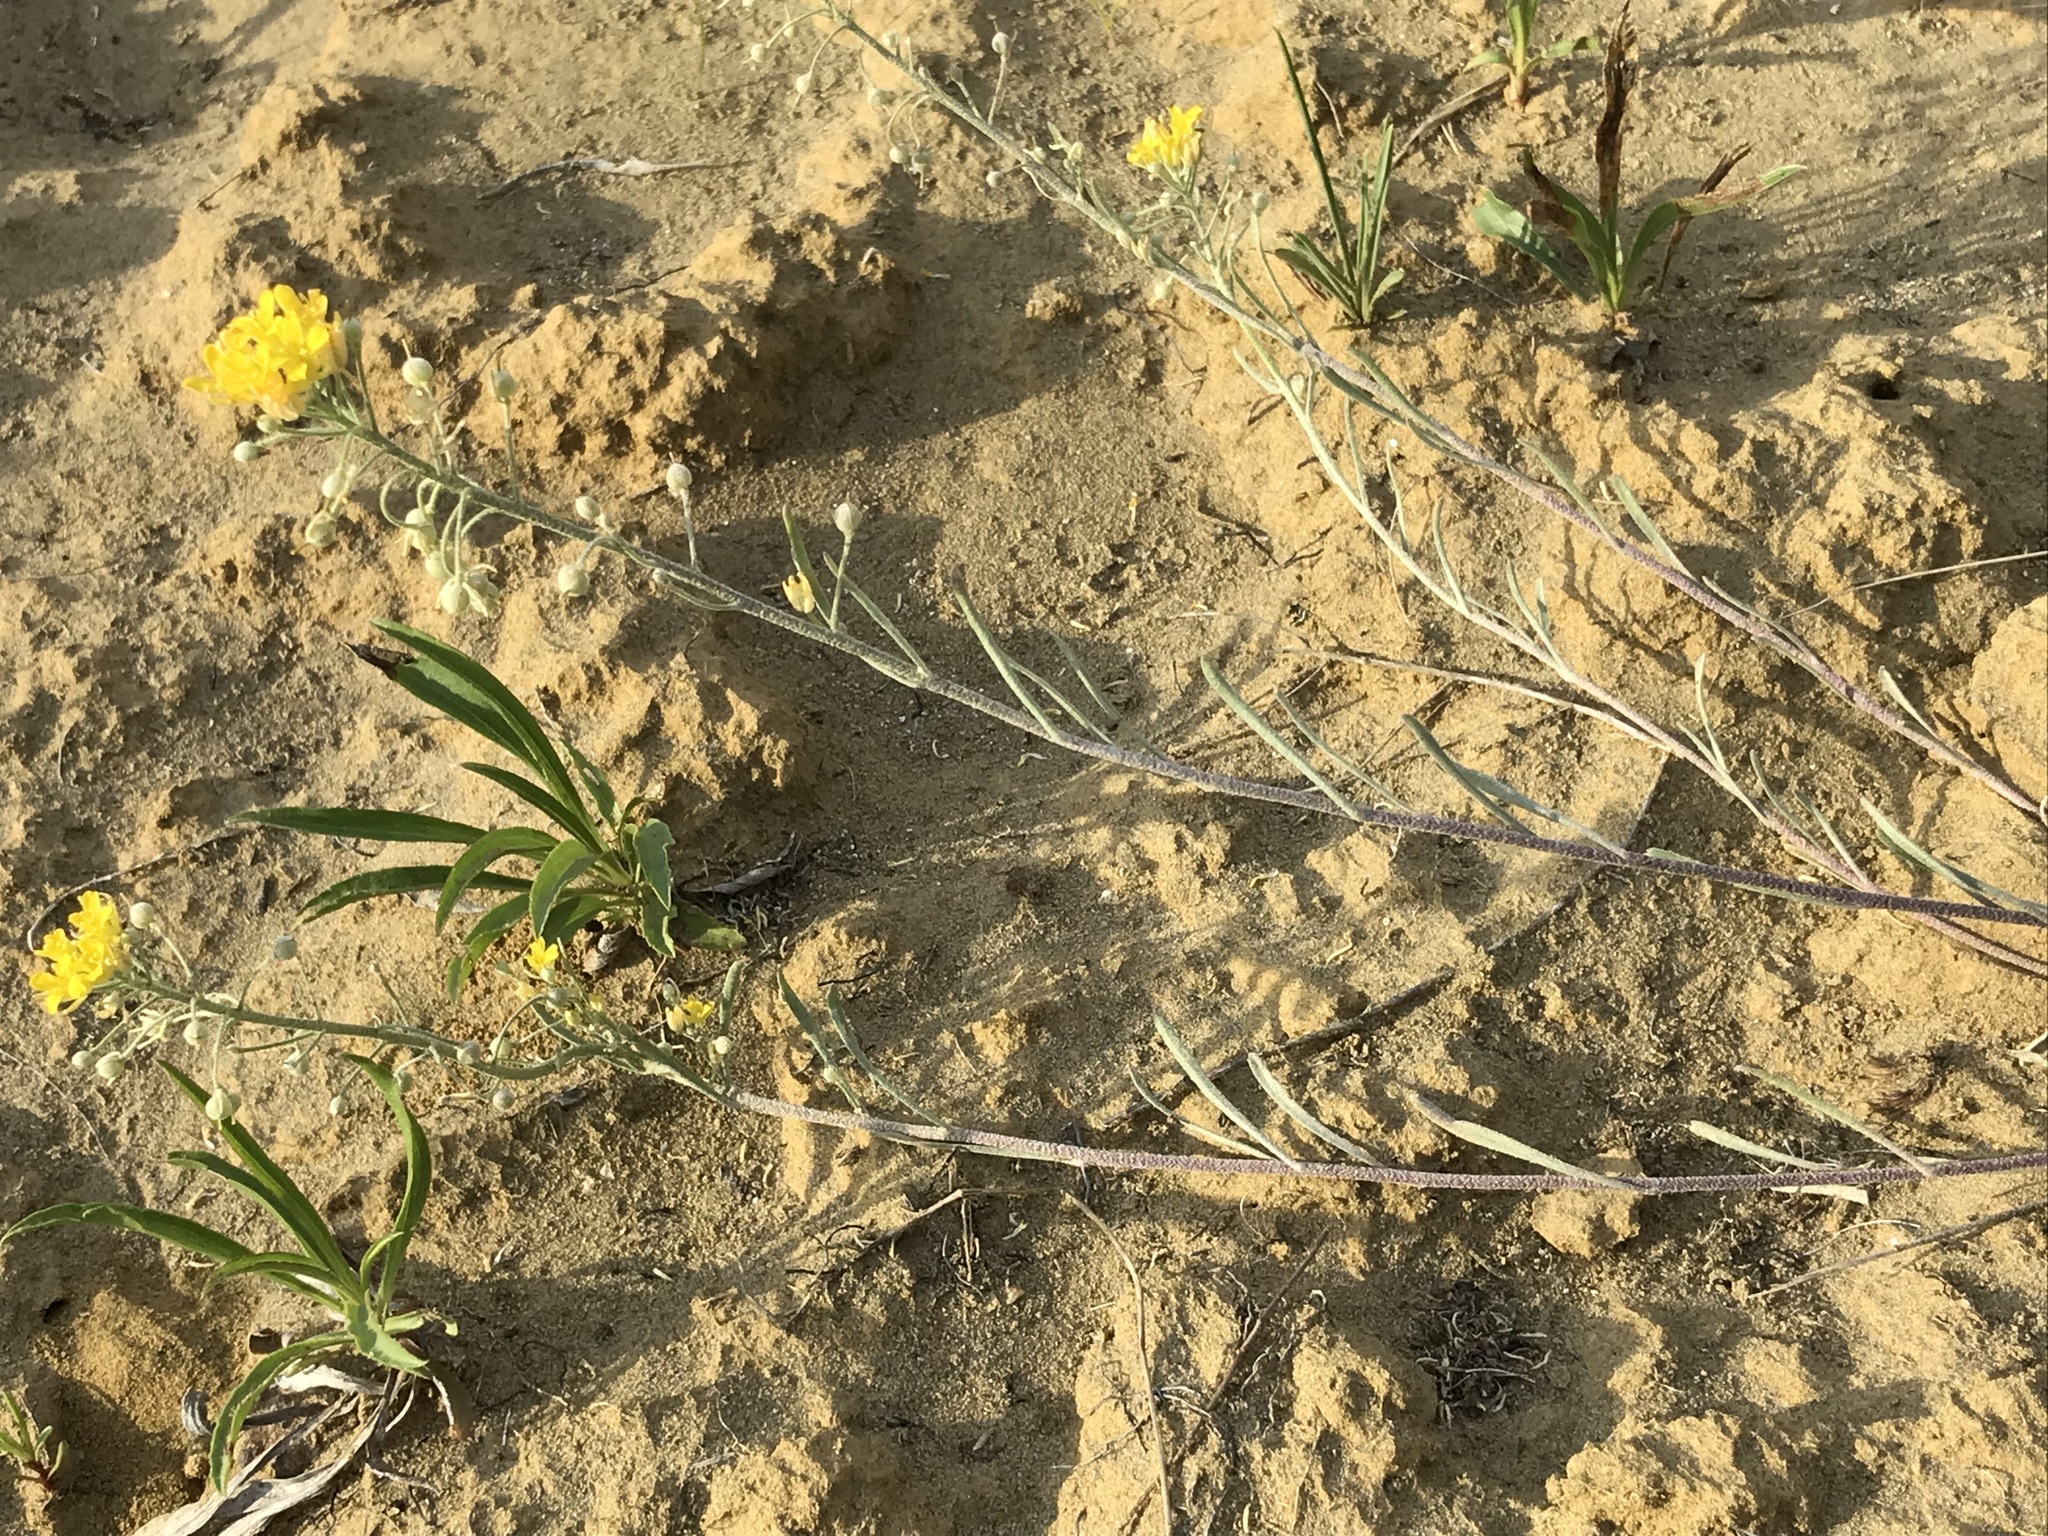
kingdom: Plantae
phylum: Tracheophyta
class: Magnoliopsida
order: Brassicales
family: Brassicaceae
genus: Physaria
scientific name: Physaria ludoviciana
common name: Foothill bladderpod
